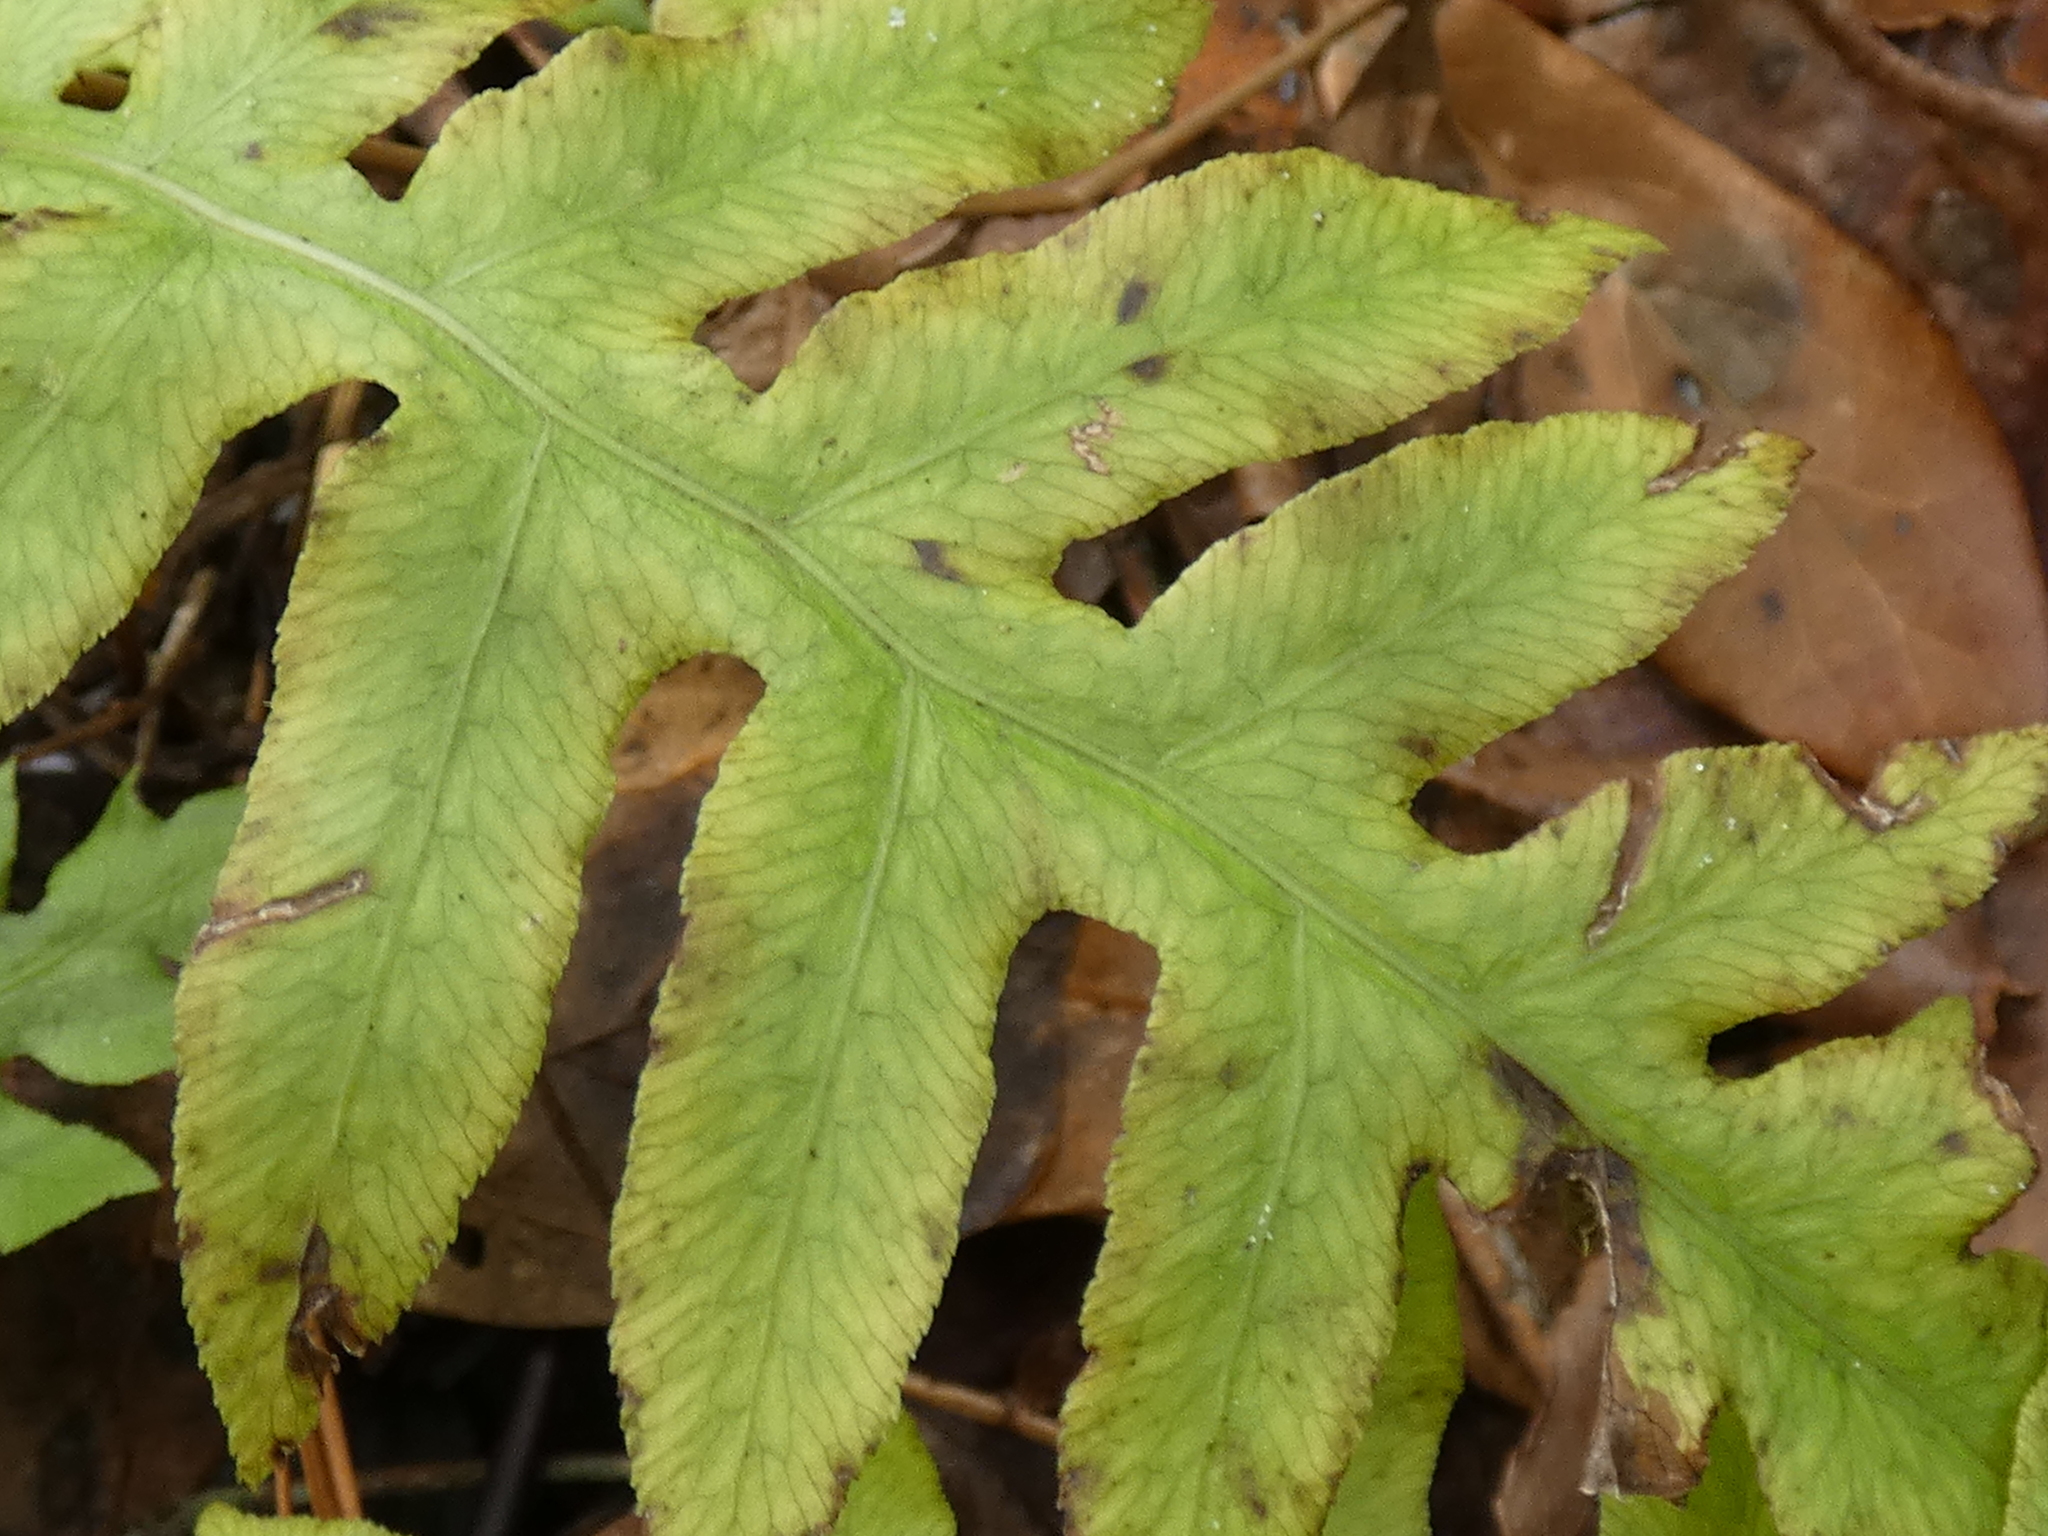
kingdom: Plantae
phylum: Tracheophyta
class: Polypodiopsida
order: Polypodiales
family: Blechnaceae
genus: Lorinseria
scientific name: Lorinseria areolata
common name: Dwarf chain fern
